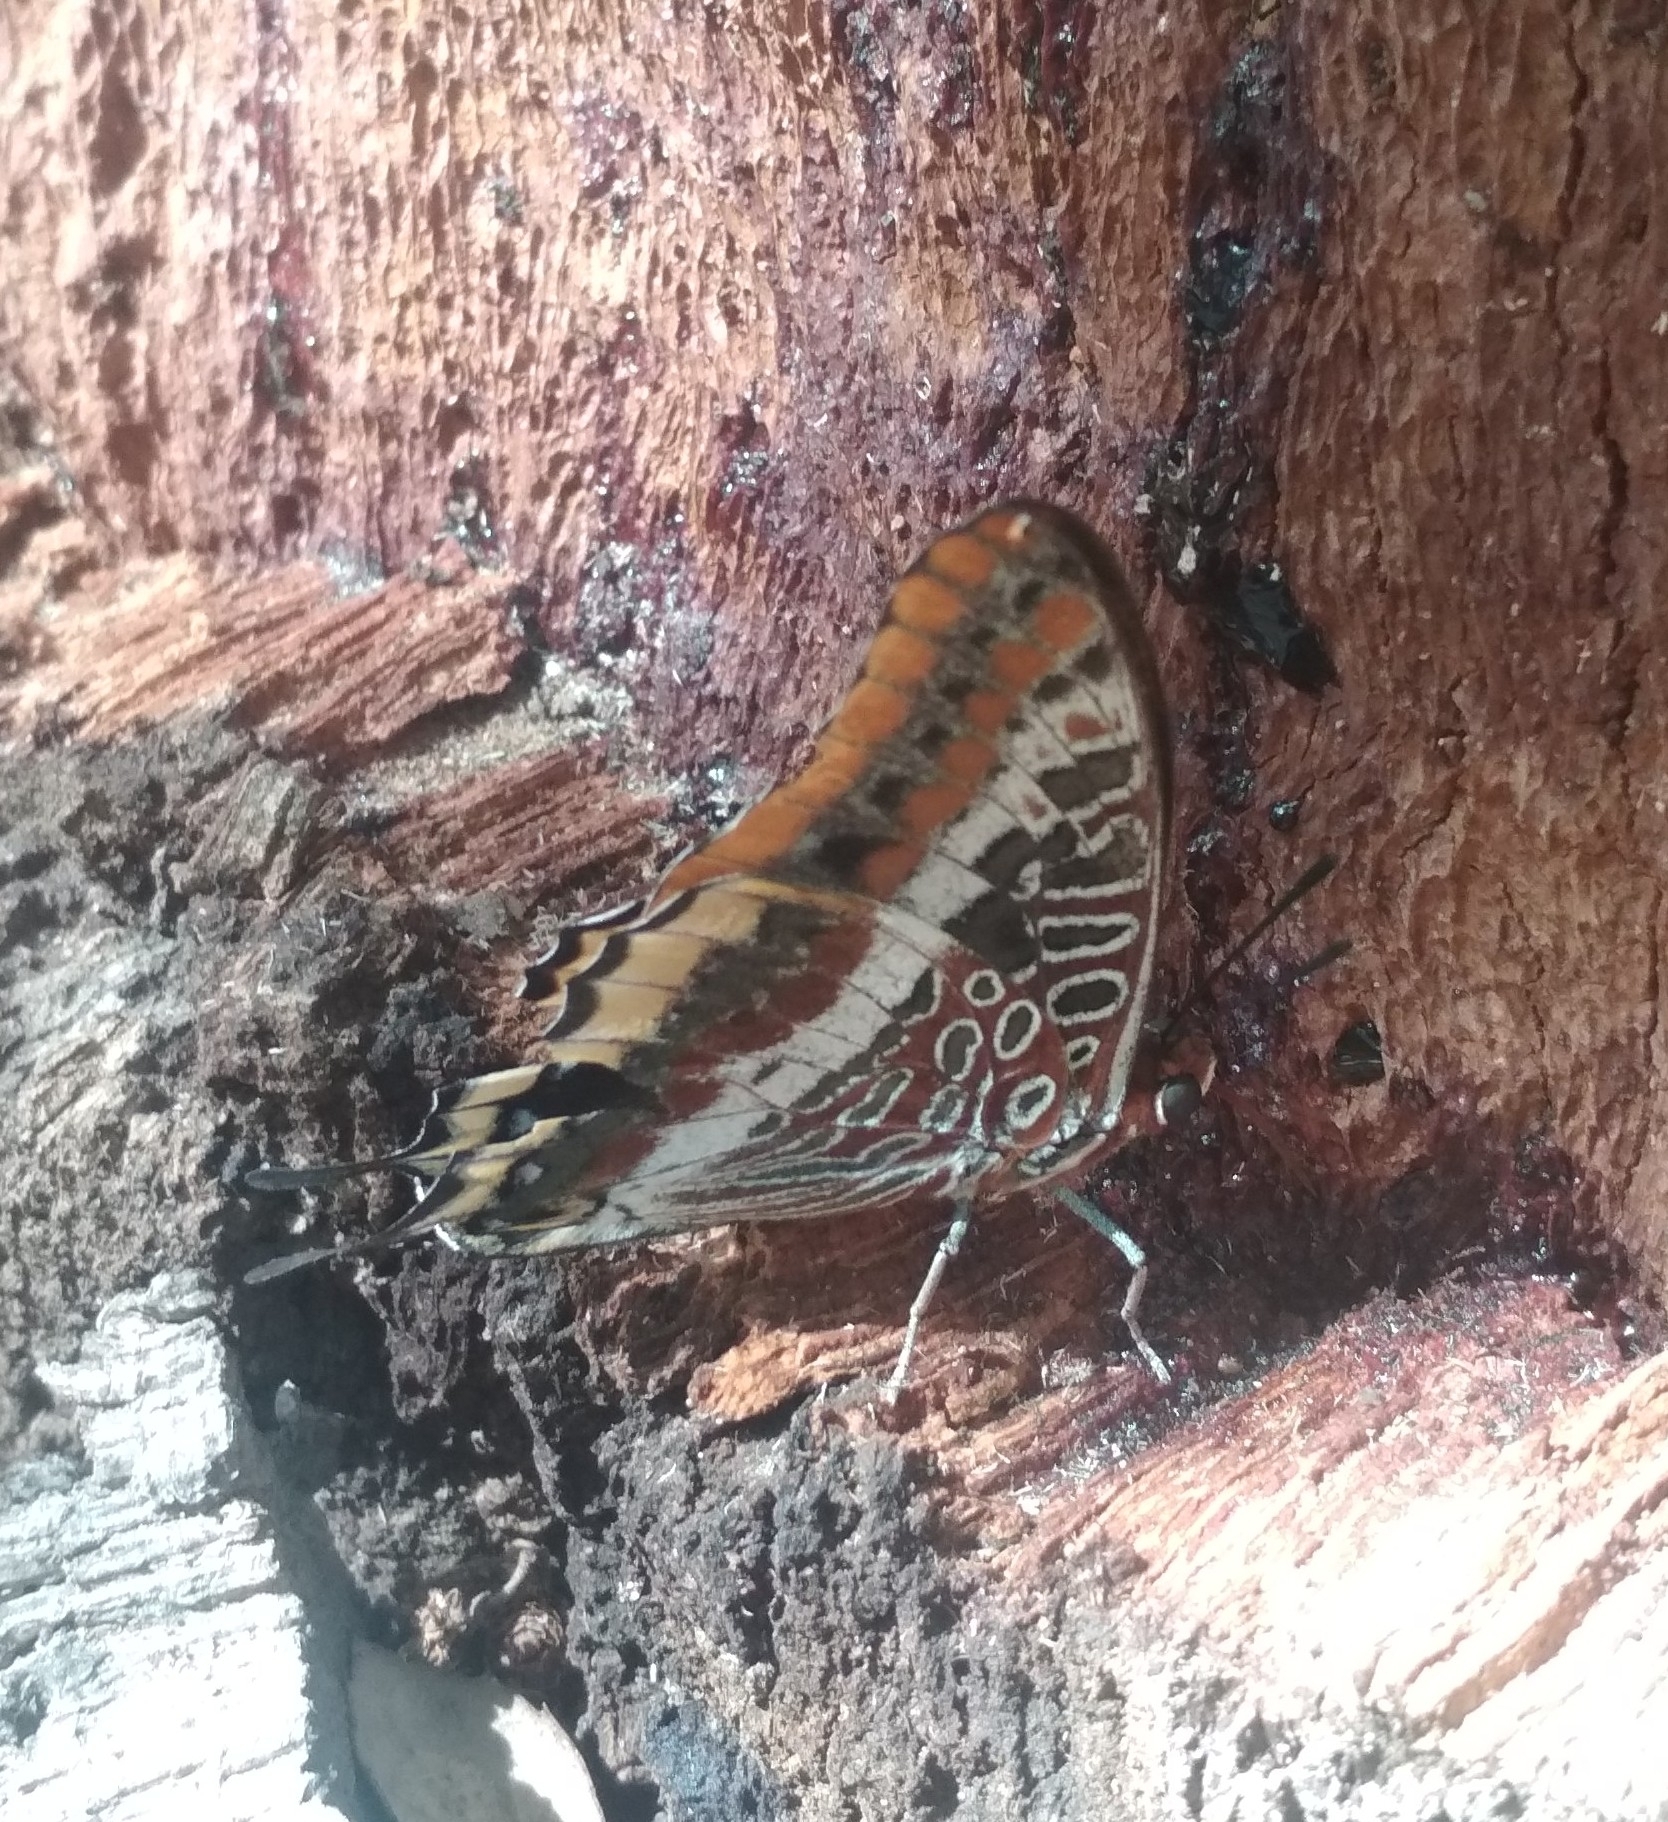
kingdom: Animalia
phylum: Arthropoda
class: Insecta
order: Lepidoptera
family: Nymphalidae
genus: Charaxes
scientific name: Charaxes jasius
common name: Two tailed pasha
